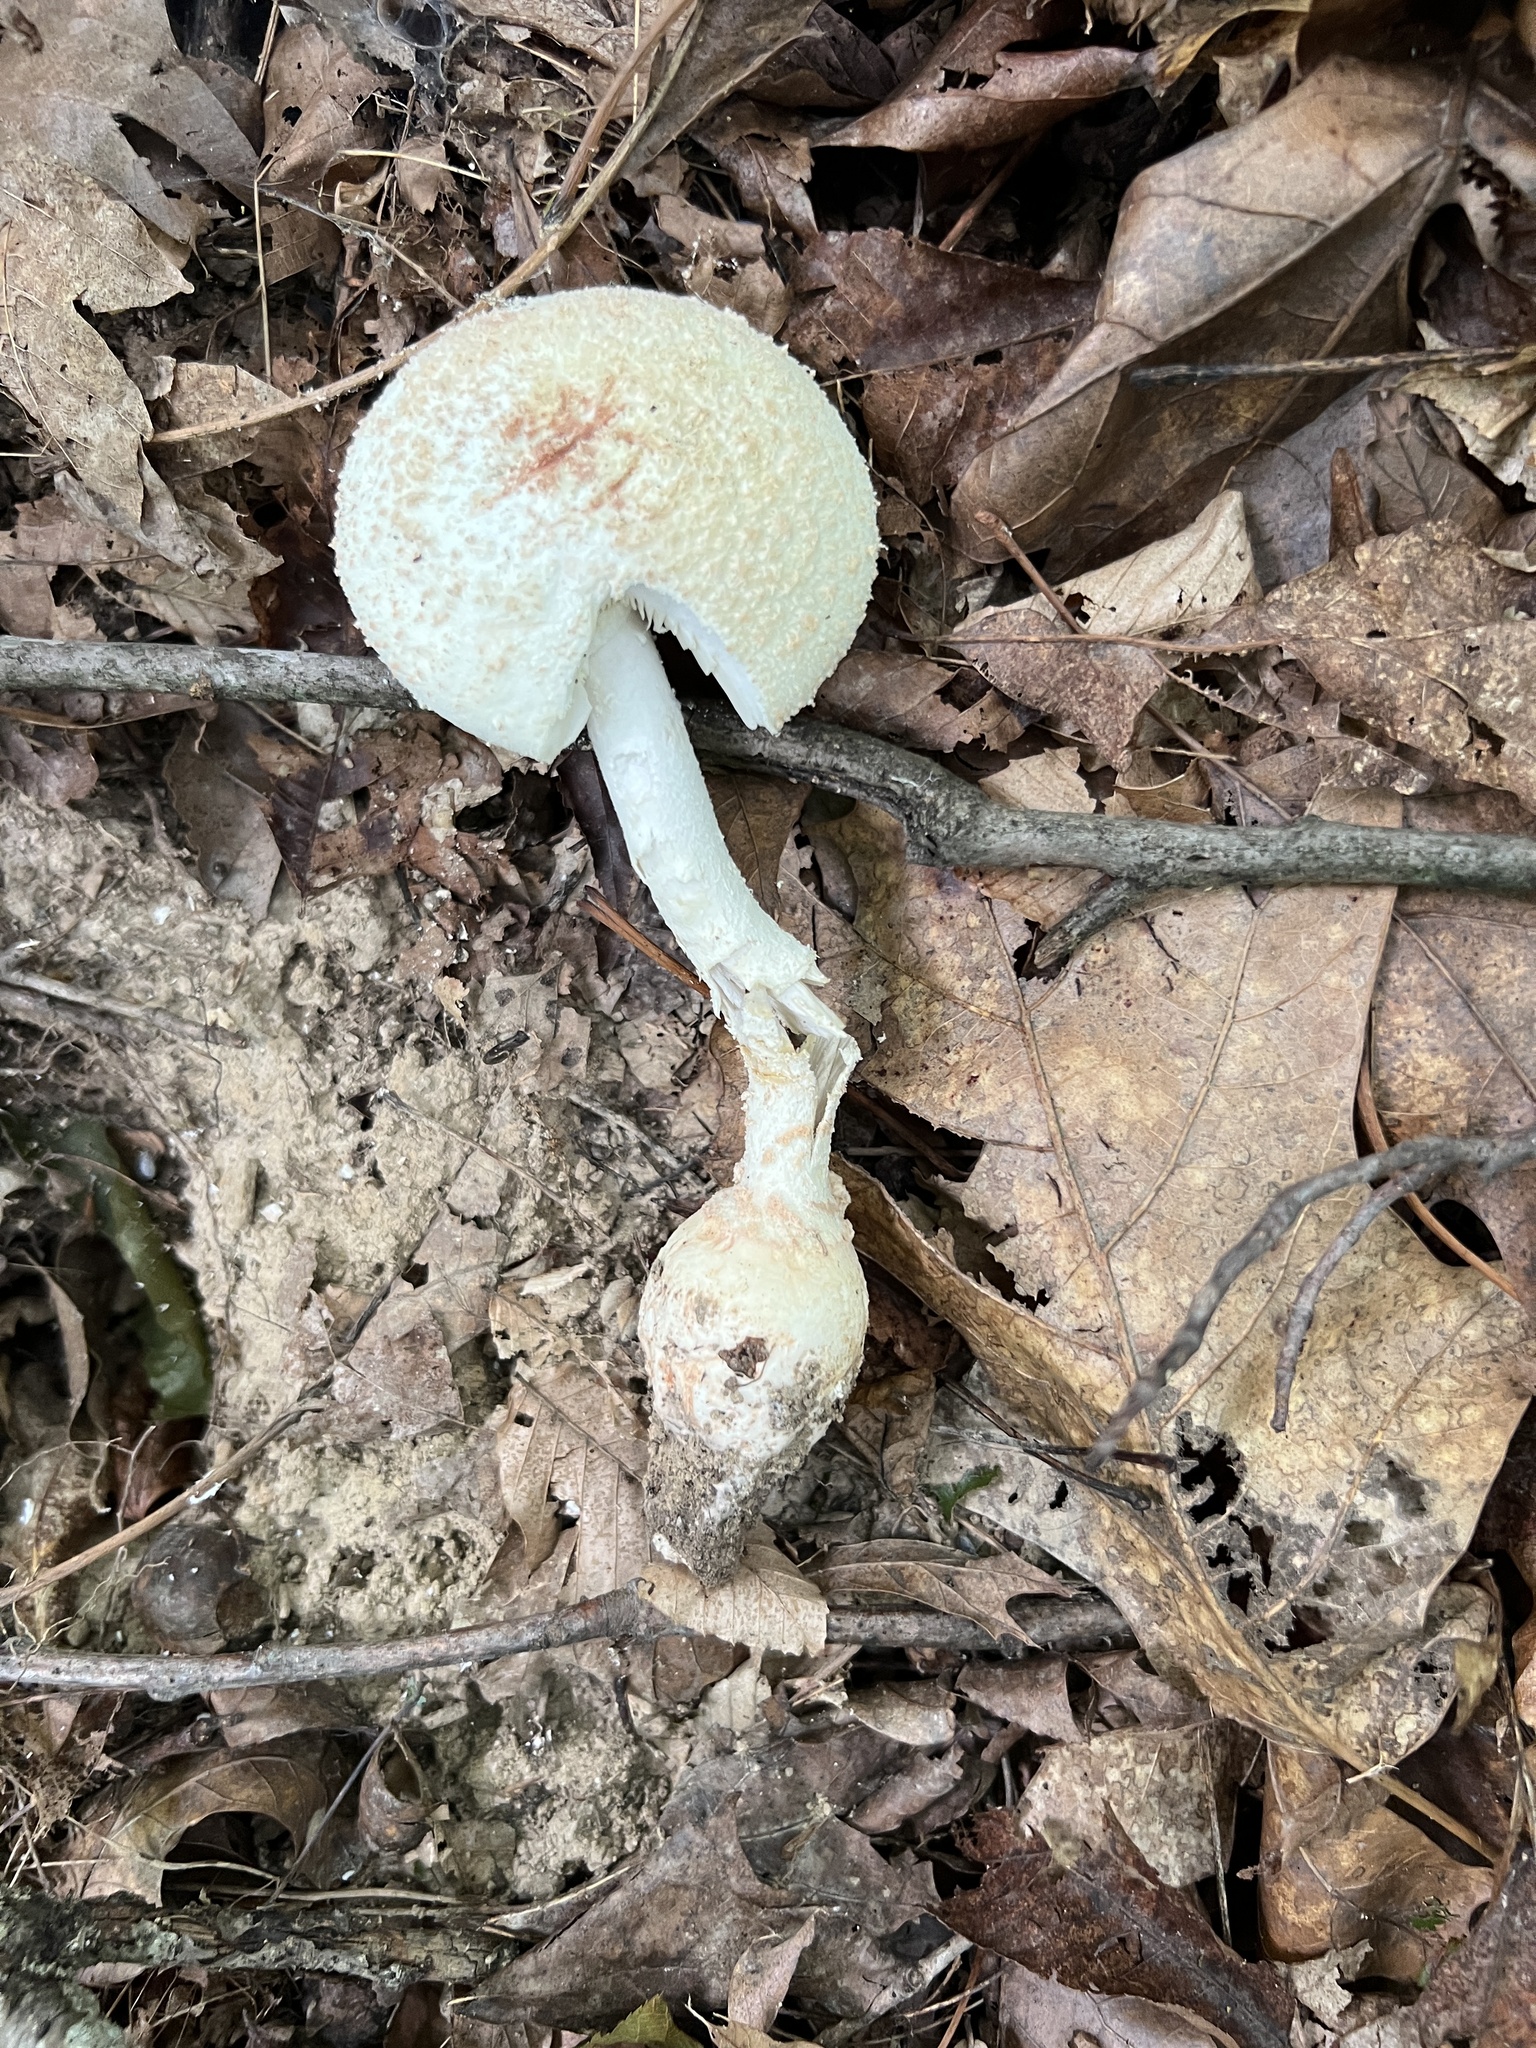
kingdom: Fungi
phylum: Basidiomycota
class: Agaricomycetes
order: Agaricales
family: Amanitaceae
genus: Amanita
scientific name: Amanita daucipes
